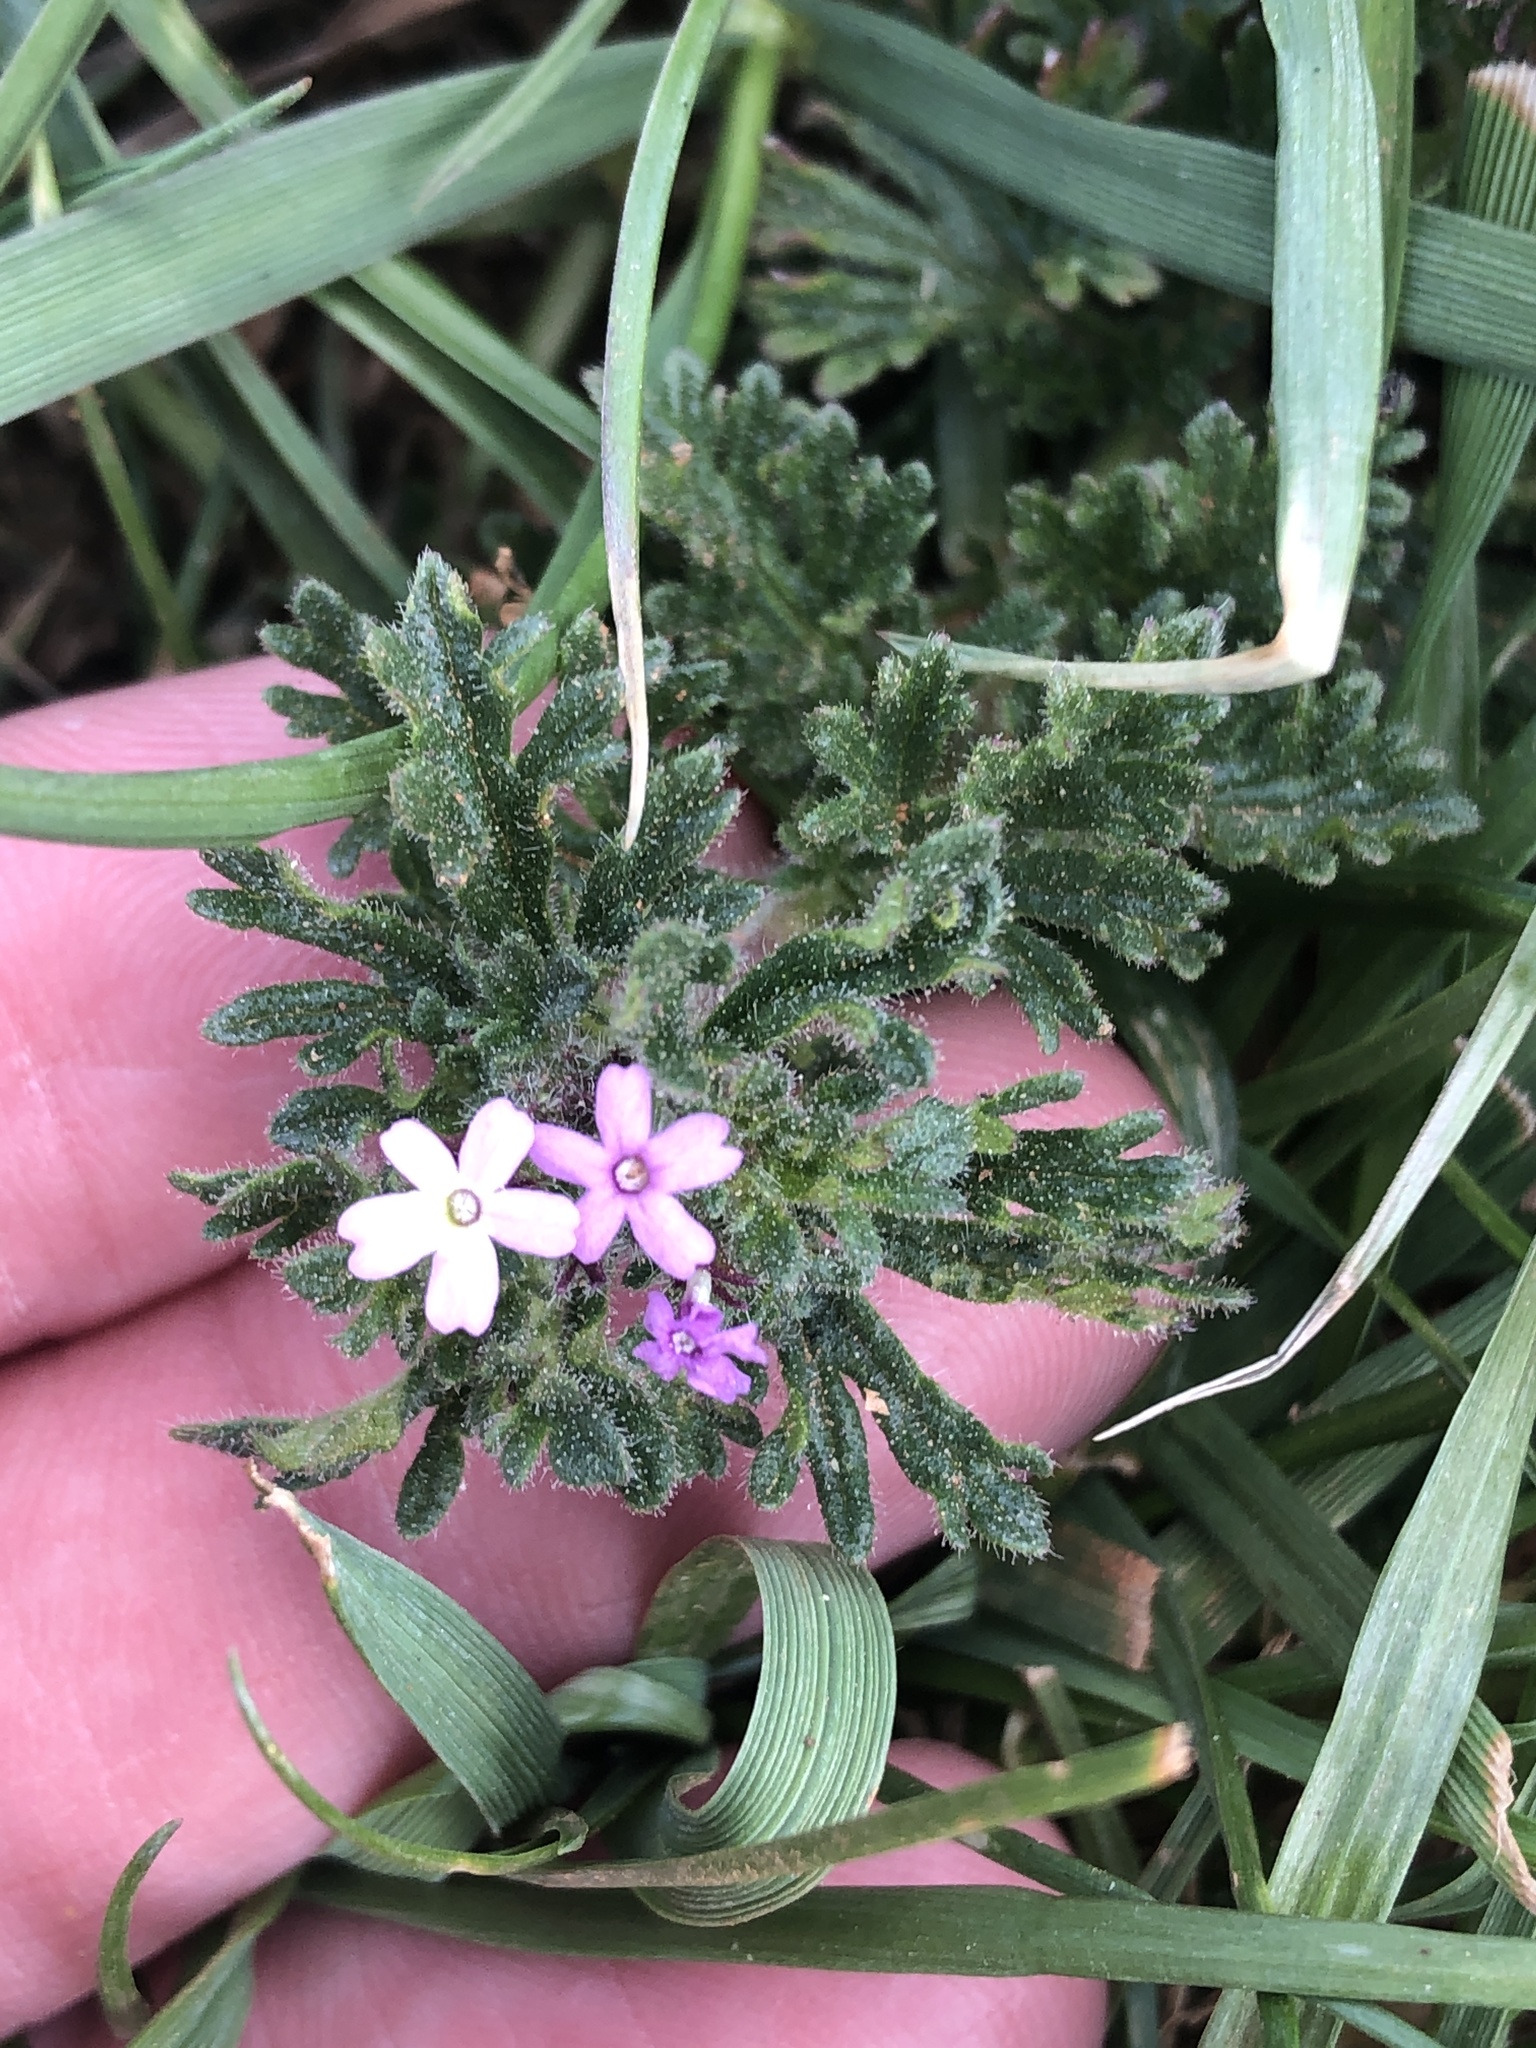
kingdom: Plantae
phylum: Tracheophyta
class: Magnoliopsida
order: Lamiales
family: Verbenaceae
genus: Verbena
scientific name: Verbena pumila
